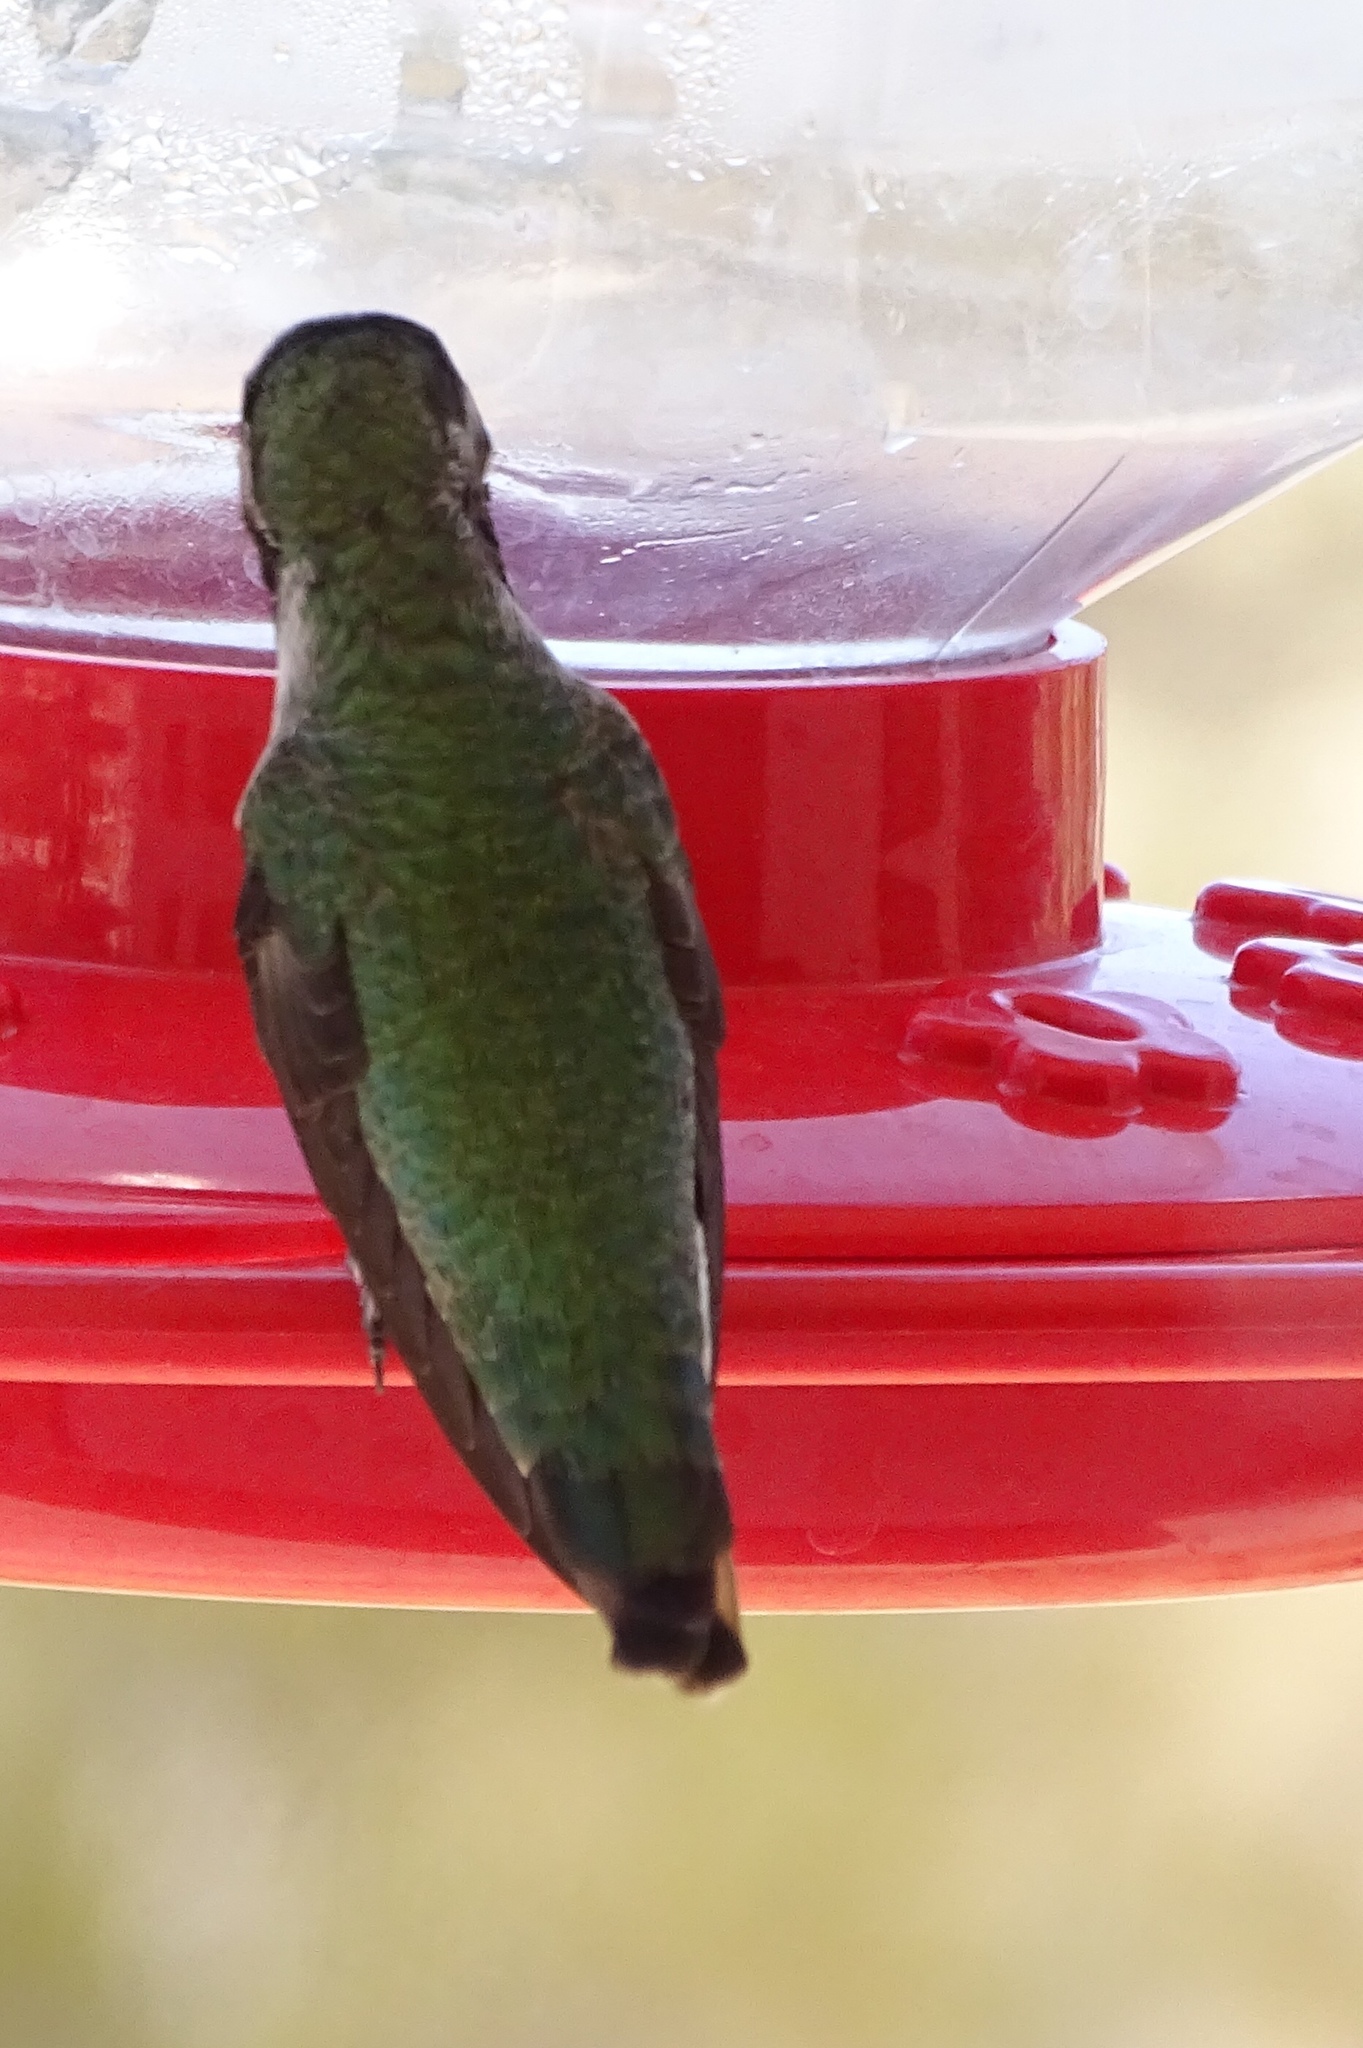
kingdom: Animalia
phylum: Chordata
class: Aves
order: Apodiformes
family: Trochilidae
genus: Calypte
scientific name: Calypte anna
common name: Anna's hummingbird
